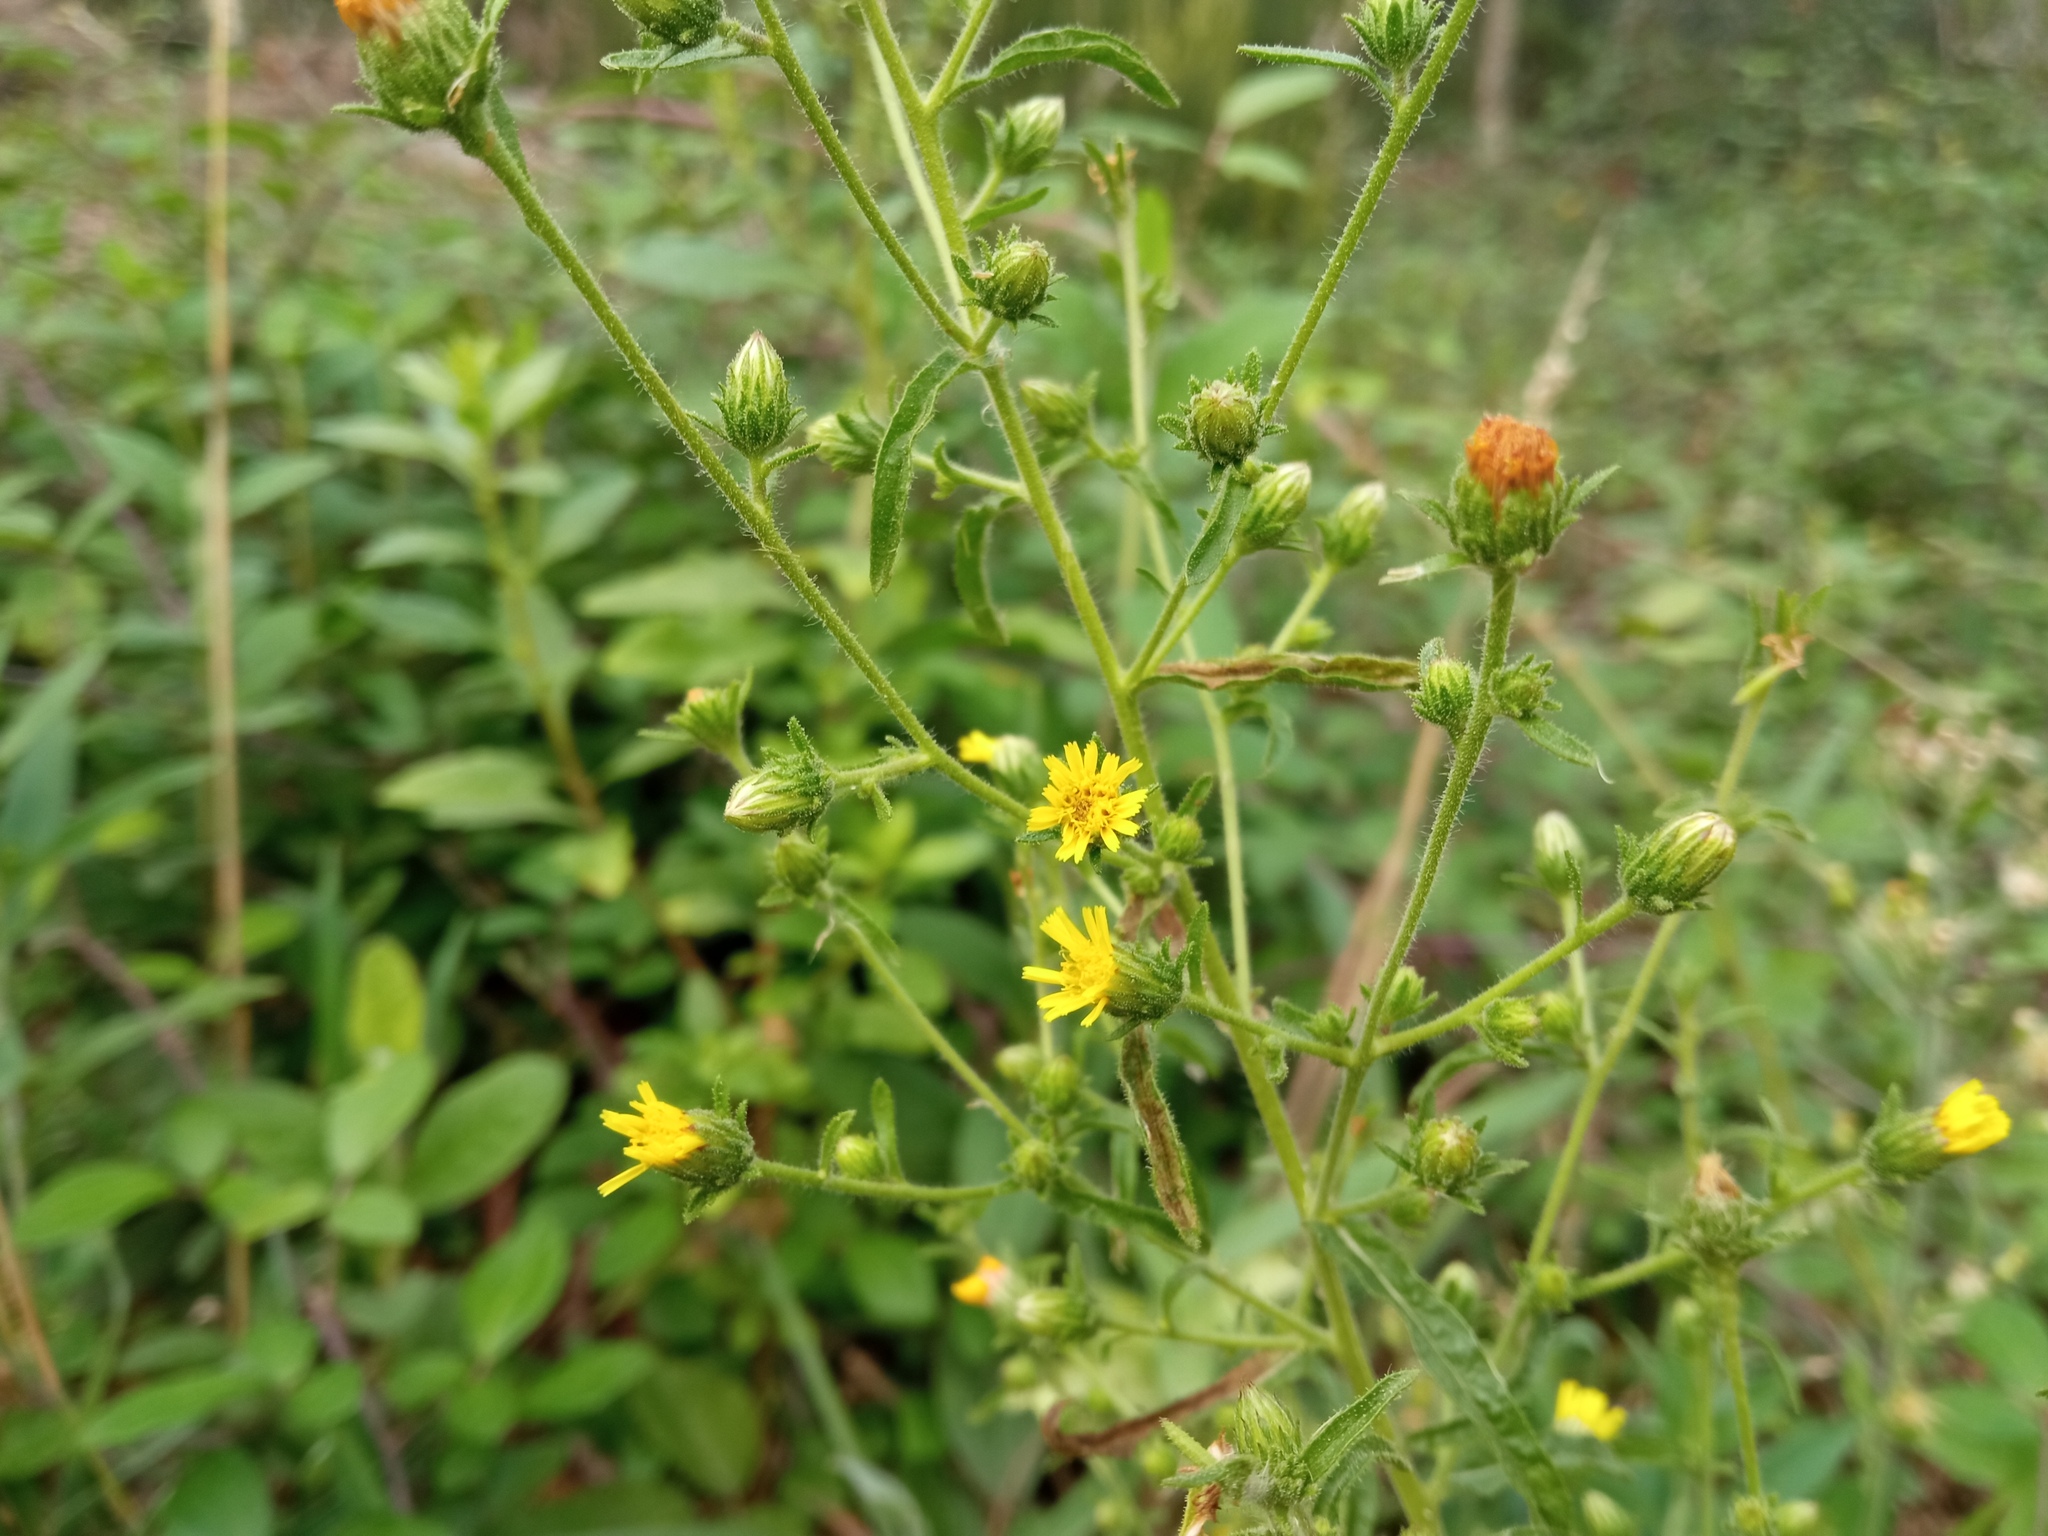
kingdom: Plantae
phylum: Tracheophyta
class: Magnoliopsida
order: Asterales
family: Asteraceae
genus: Dittrichia
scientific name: Dittrichia graveolens
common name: Stinking fleabane
